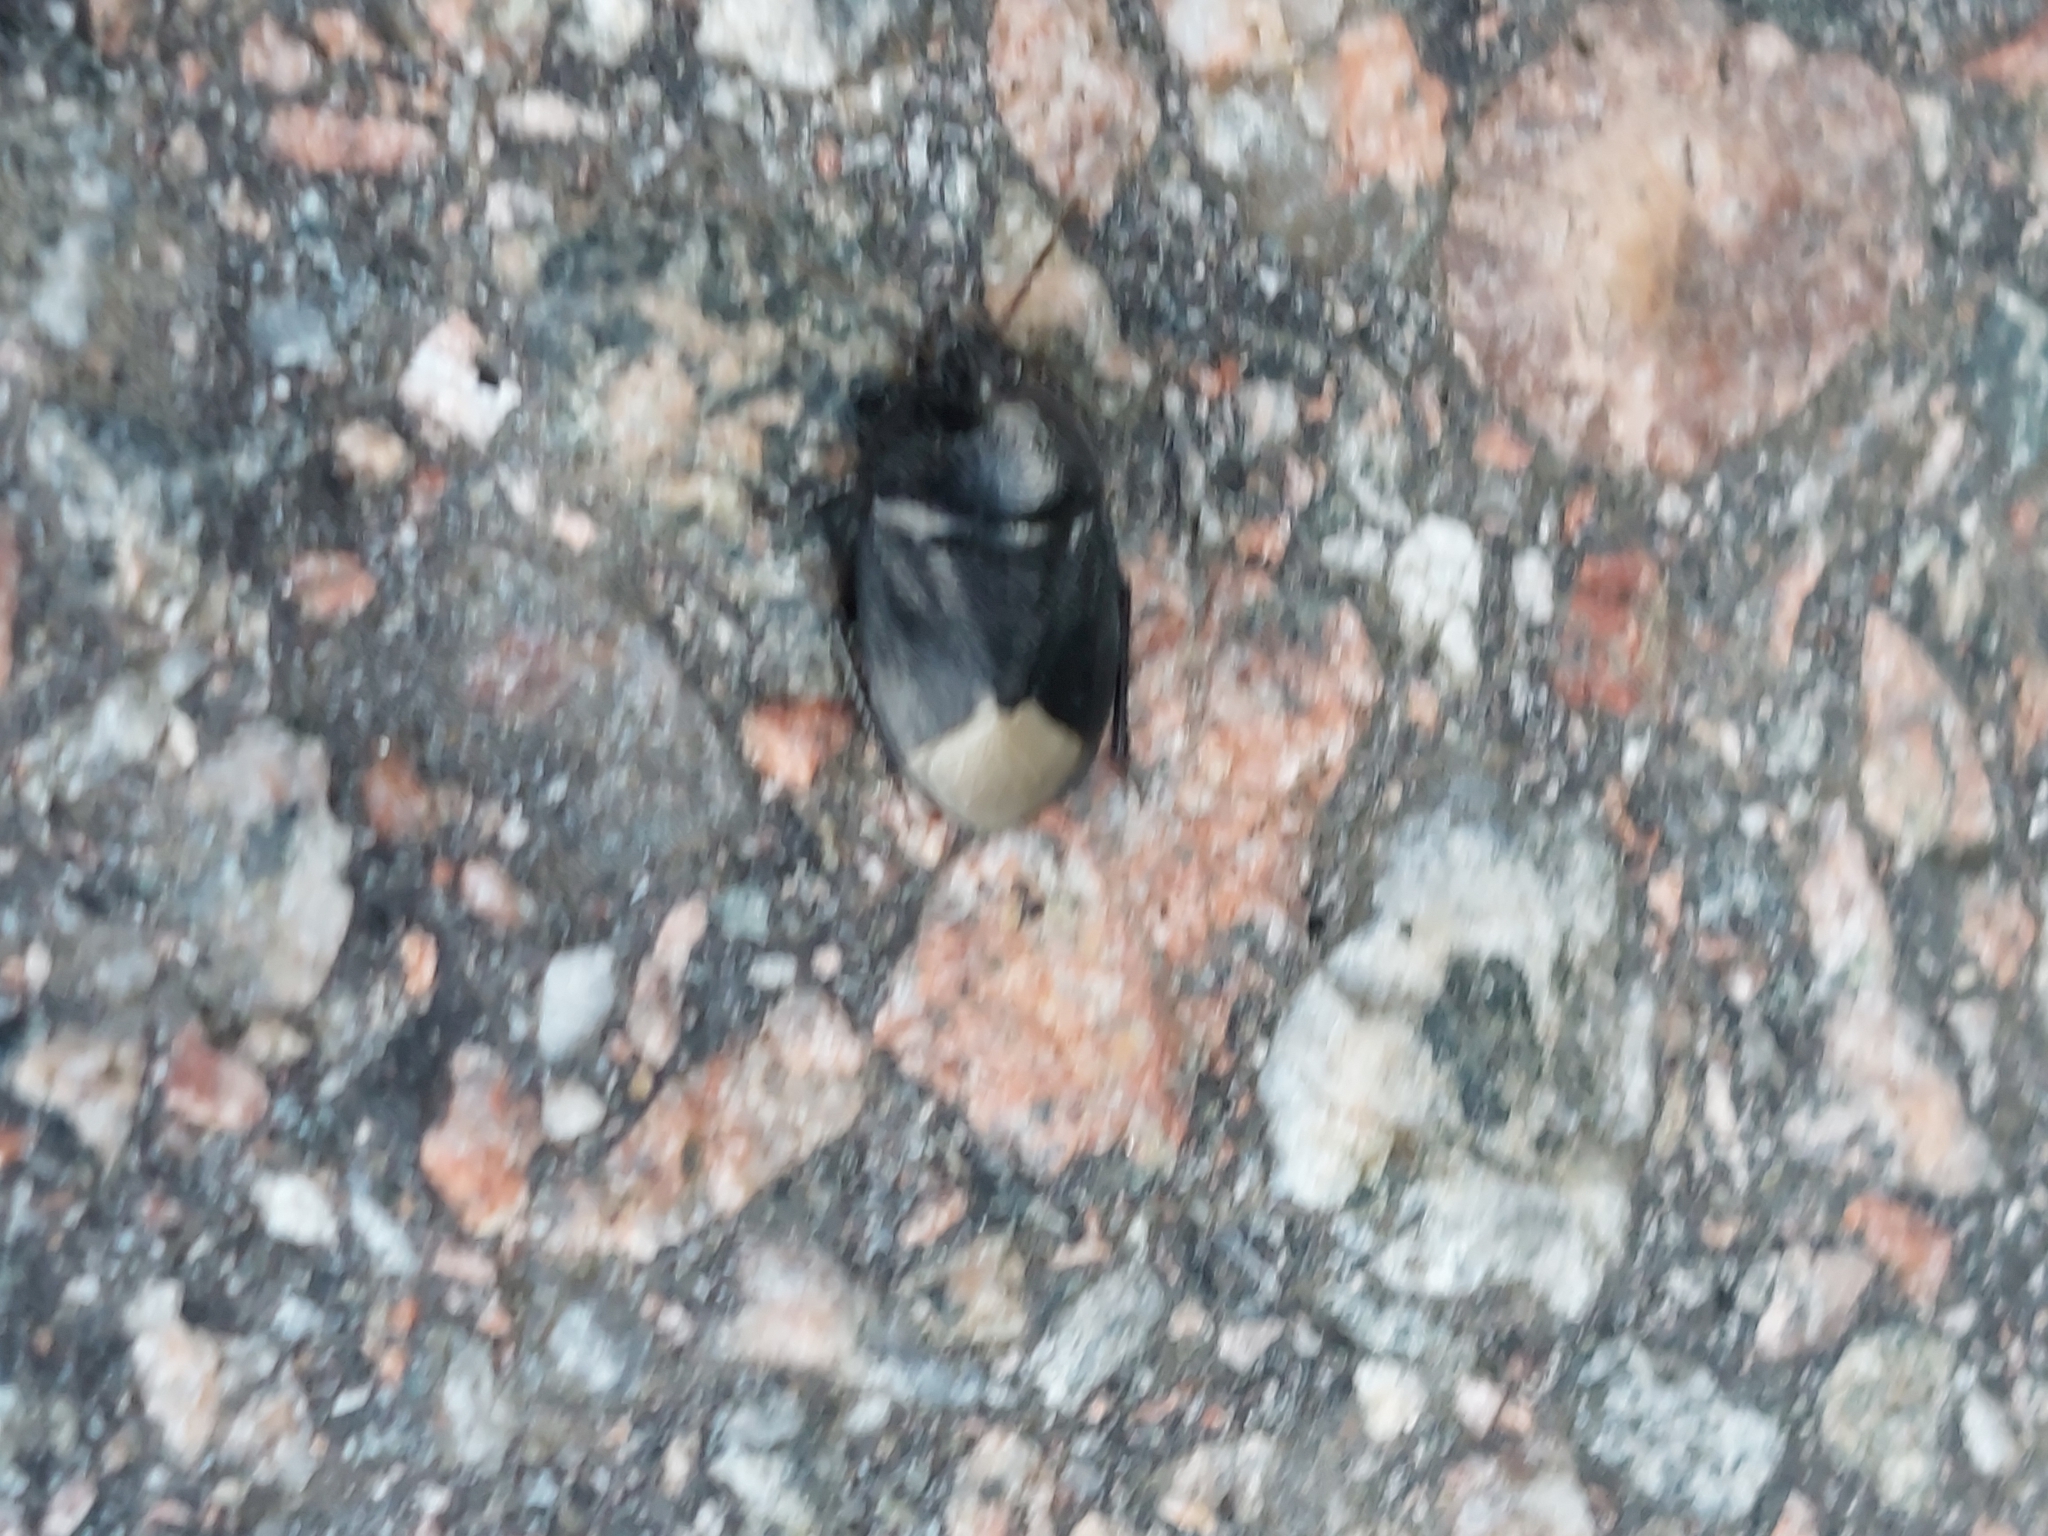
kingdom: Animalia
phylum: Arthropoda
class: Insecta
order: Hemiptera
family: Cydnidae
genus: Sehirus
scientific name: Sehirus morio
